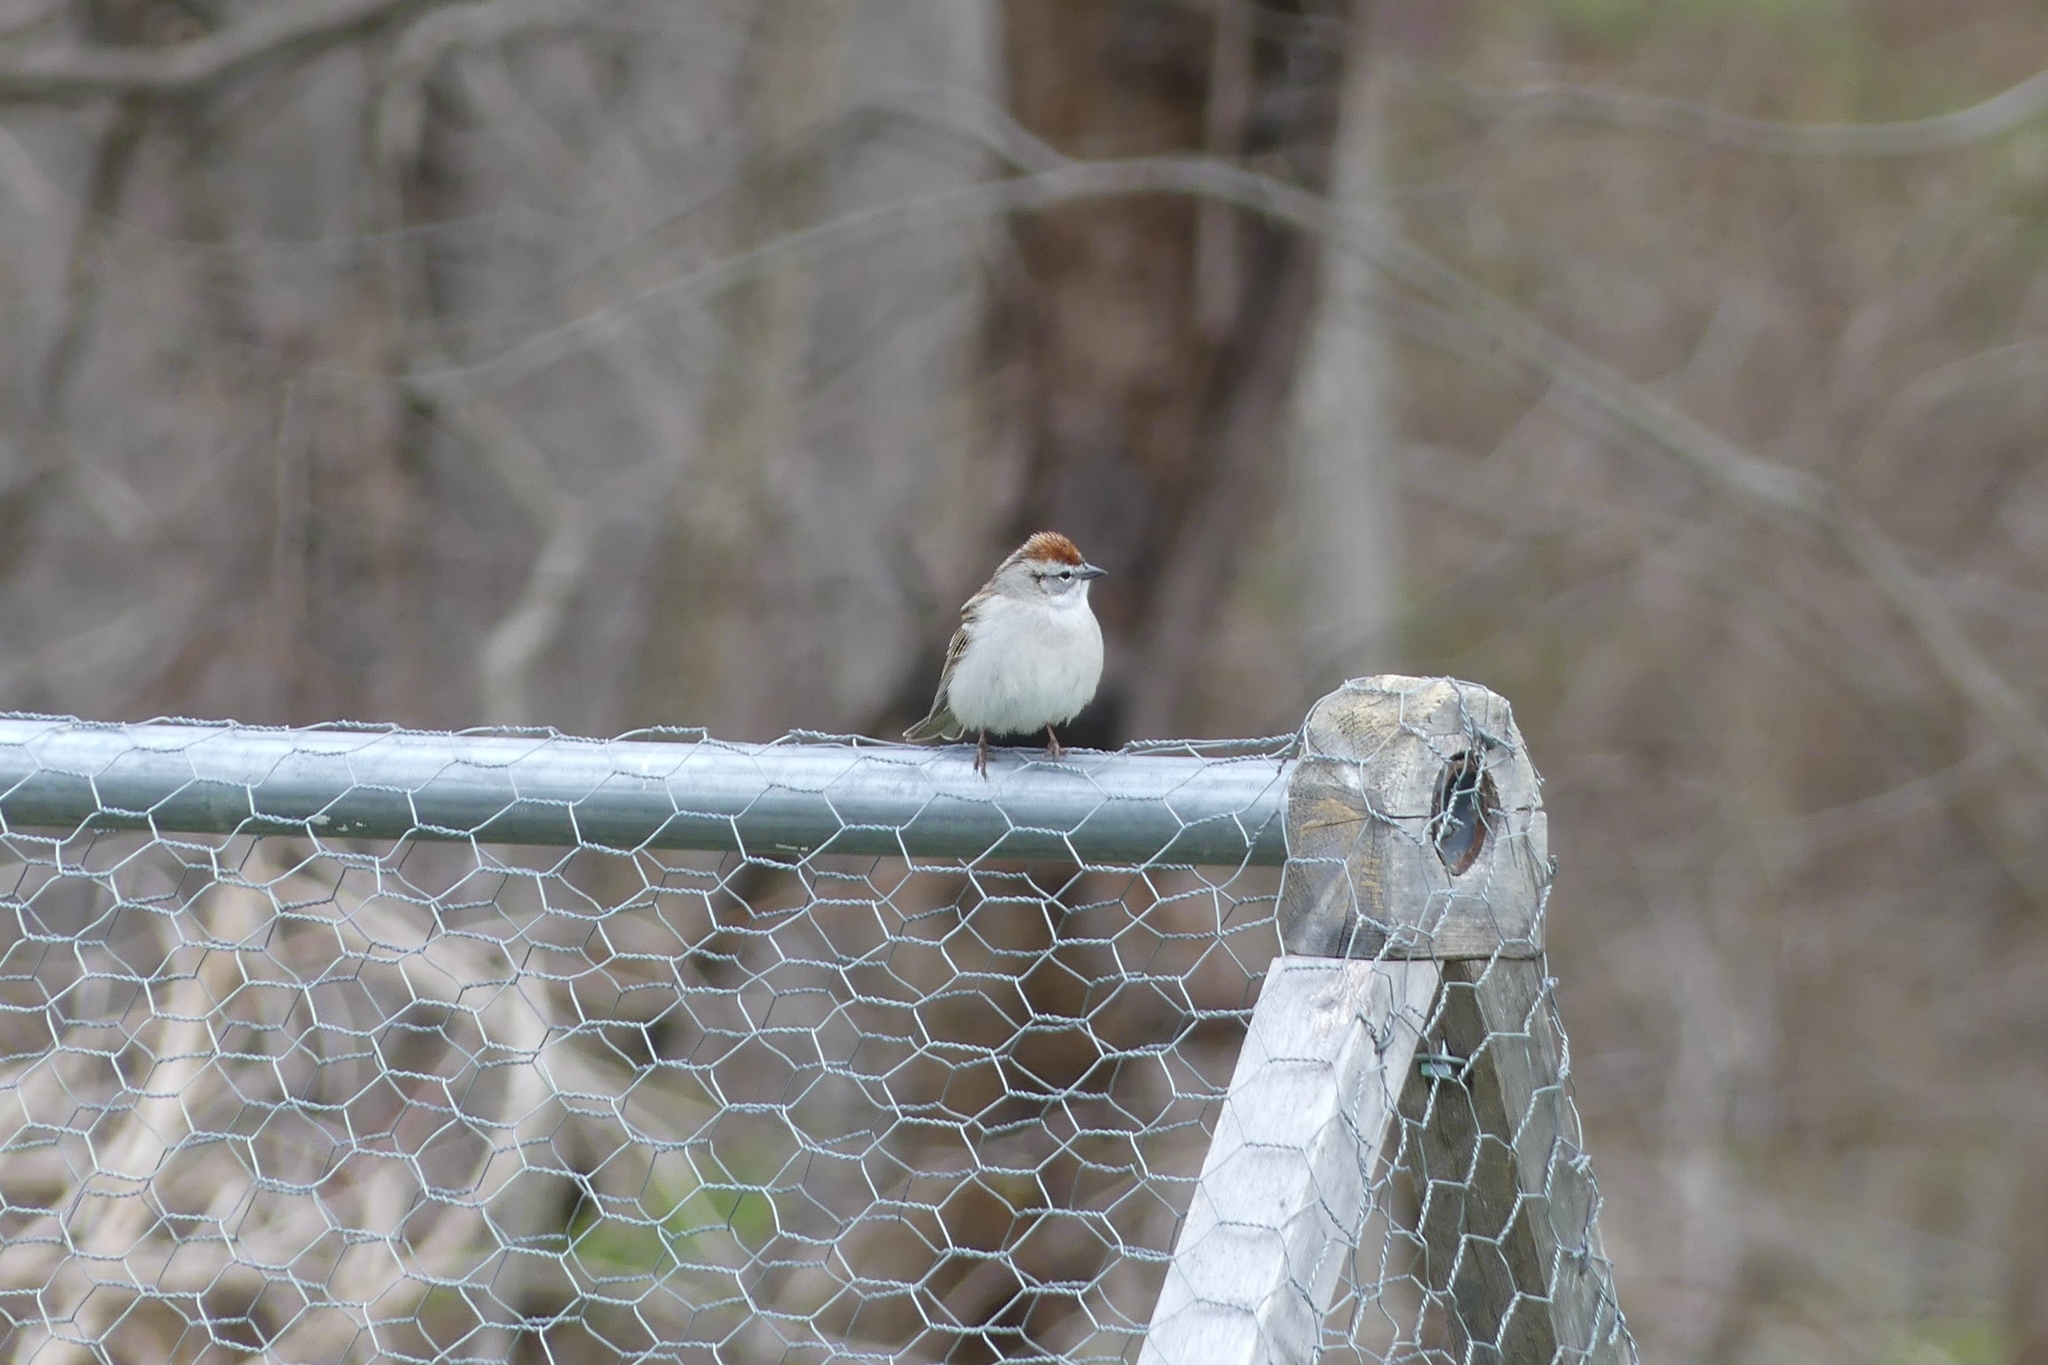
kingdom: Animalia
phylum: Chordata
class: Aves
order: Passeriformes
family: Passerellidae
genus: Spizella
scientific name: Spizella passerina
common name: Chipping sparrow
